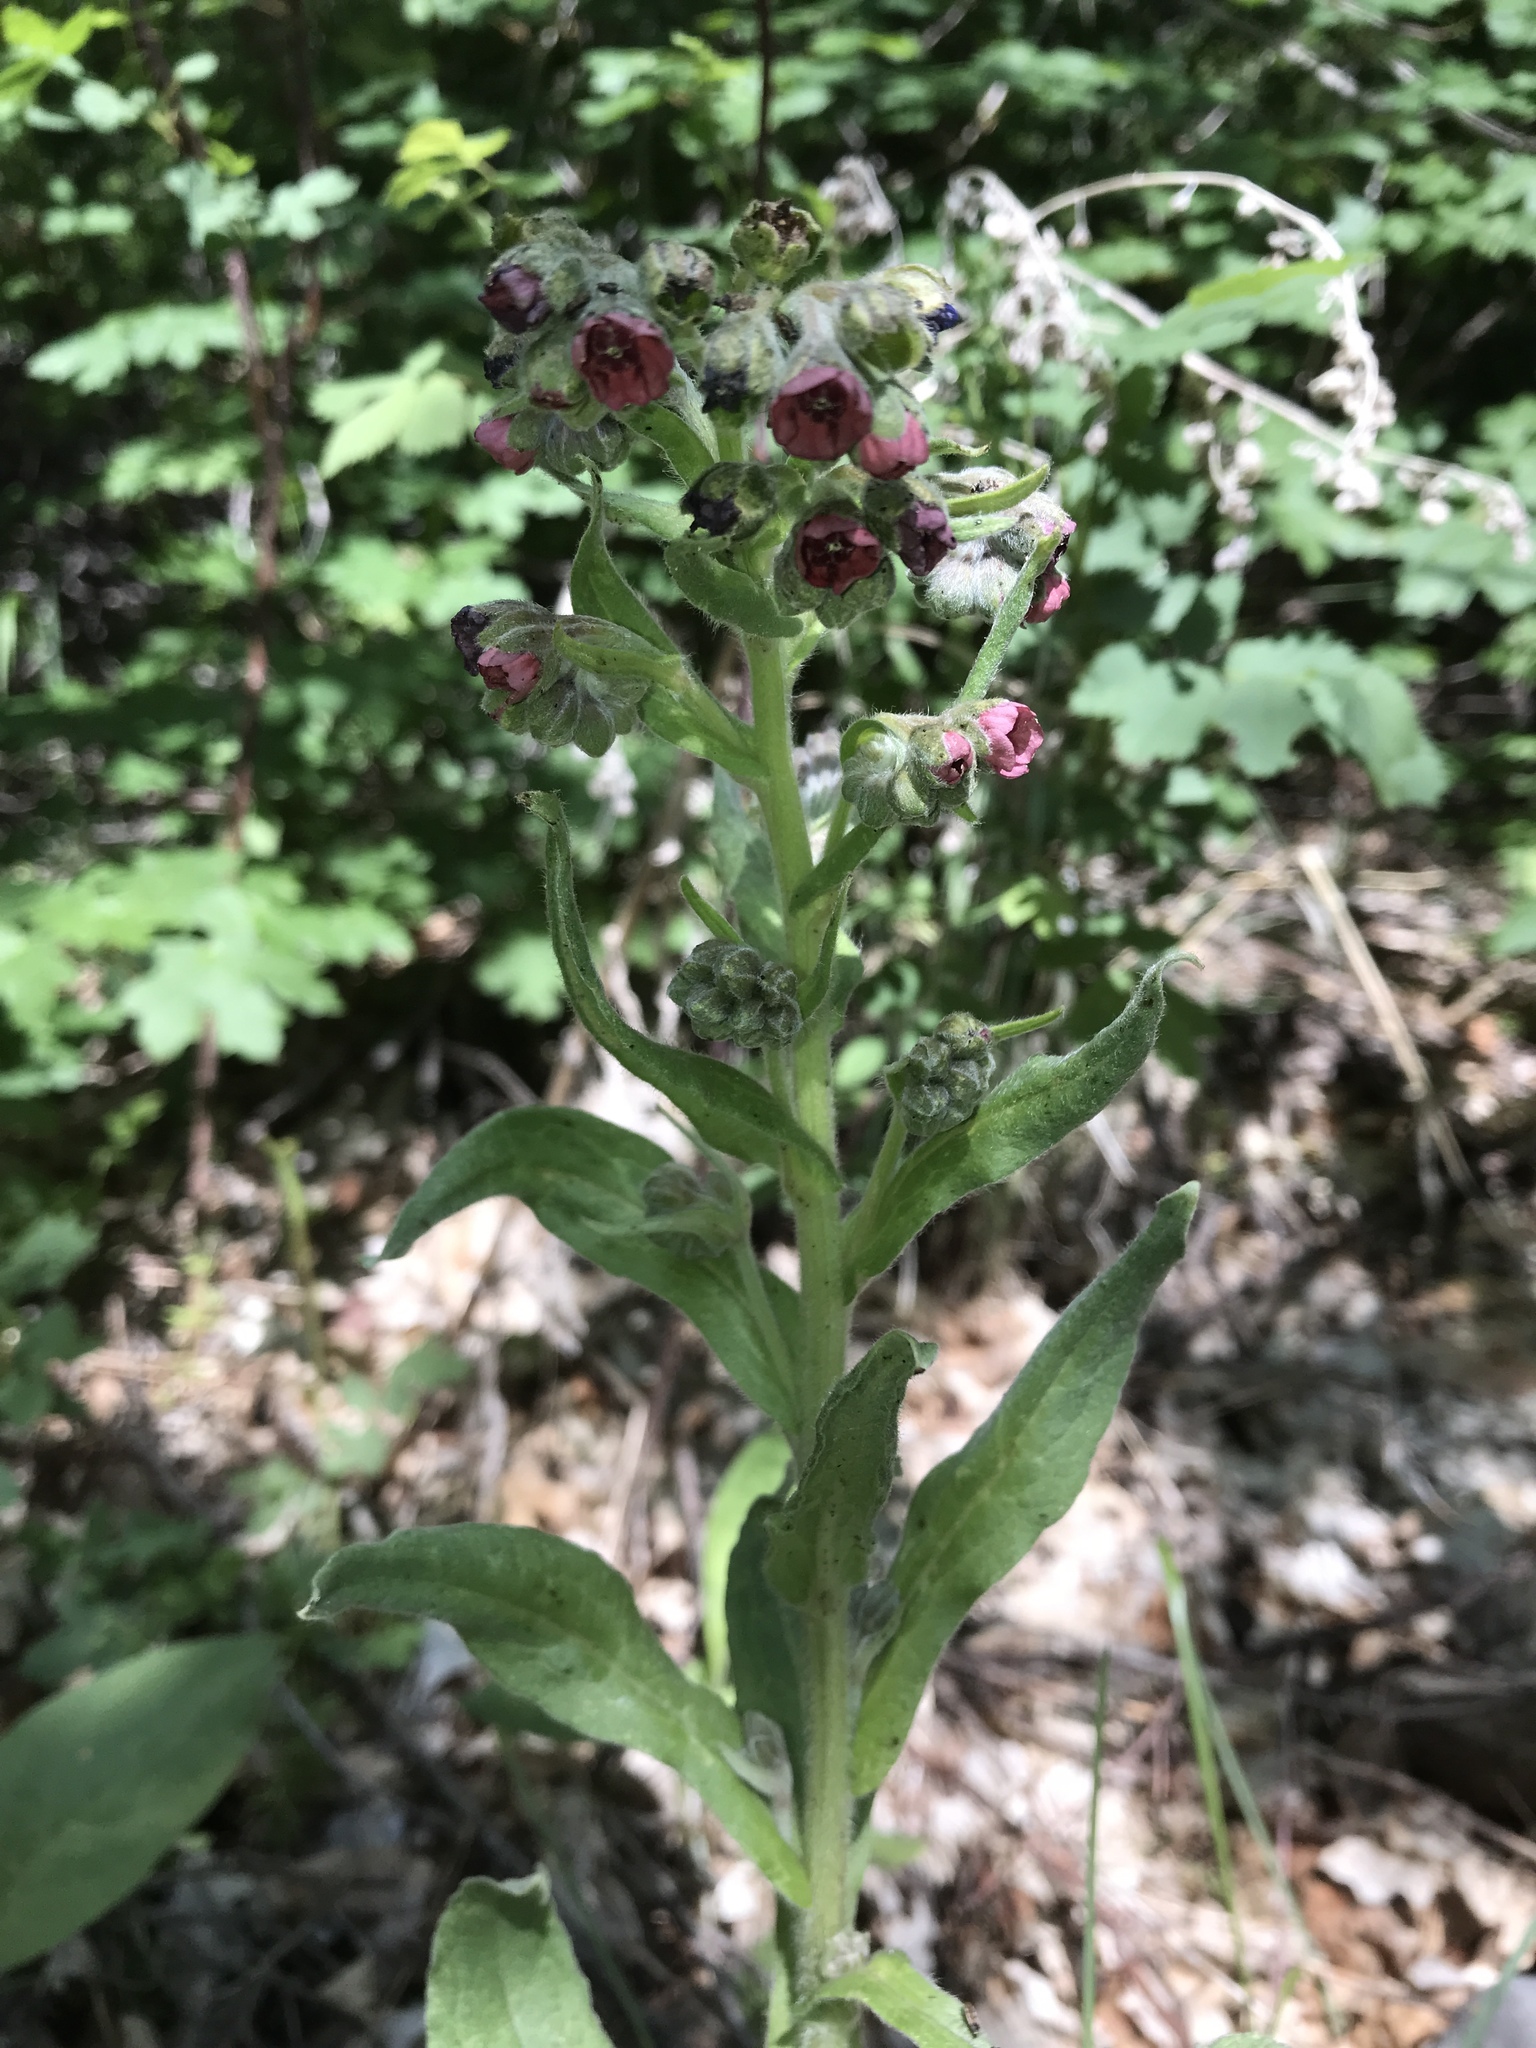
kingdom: Plantae
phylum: Tracheophyta
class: Magnoliopsida
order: Boraginales
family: Boraginaceae
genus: Cynoglossum
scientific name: Cynoglossum officinale
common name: Hound's-tongue
